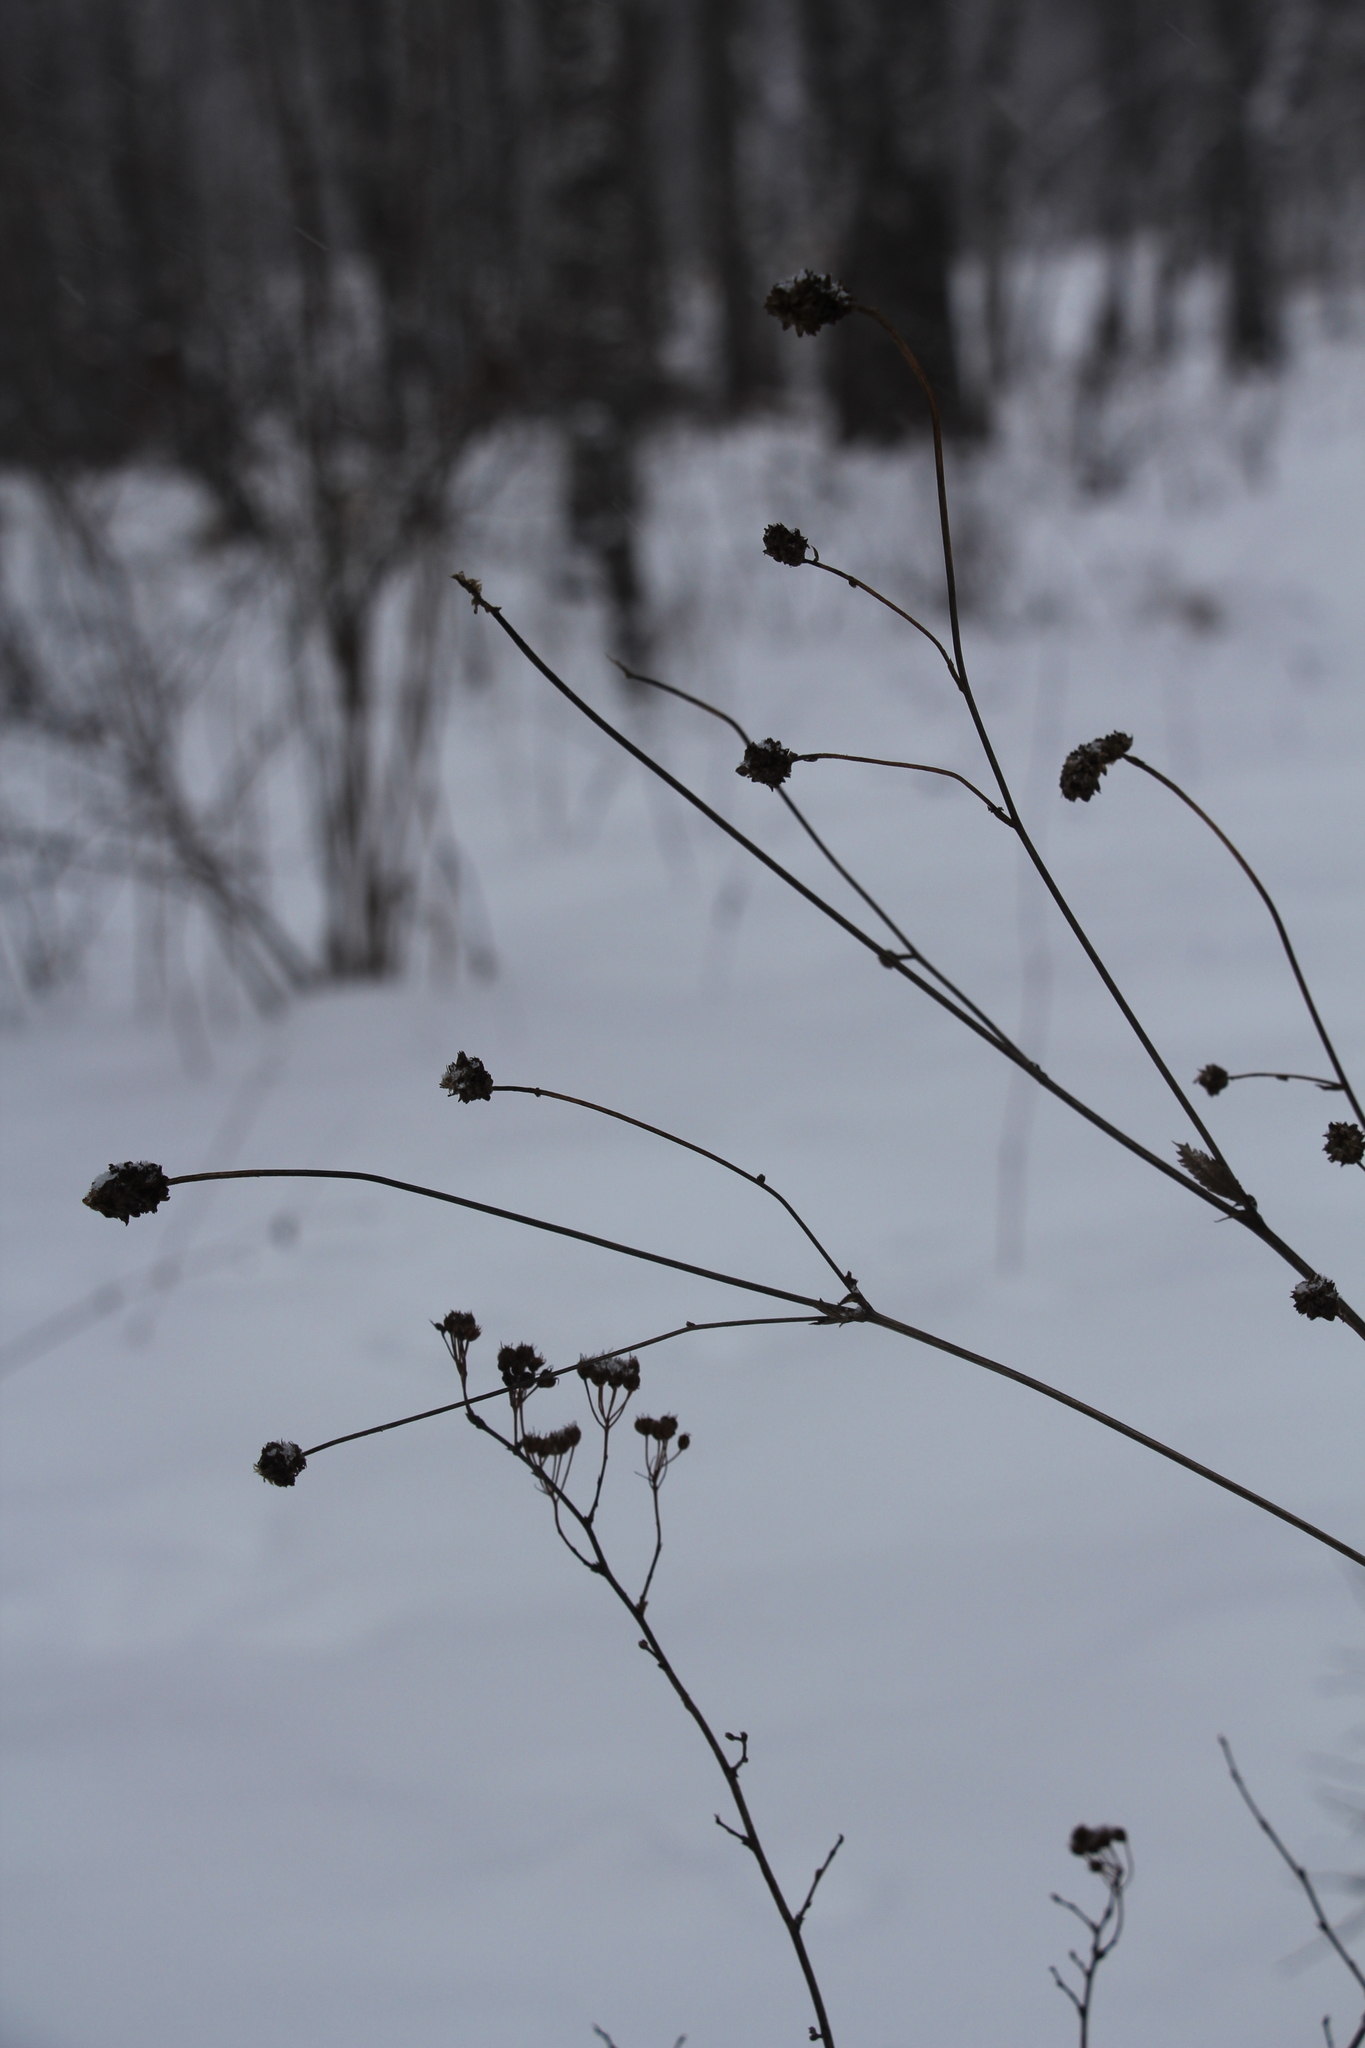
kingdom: Plantae
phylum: Tracheophyta
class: Magnoliopsida
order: Rosales
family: Rosaceae
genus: Sanguisorba
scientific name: Sanguisorba officinalis
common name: Great burnet
